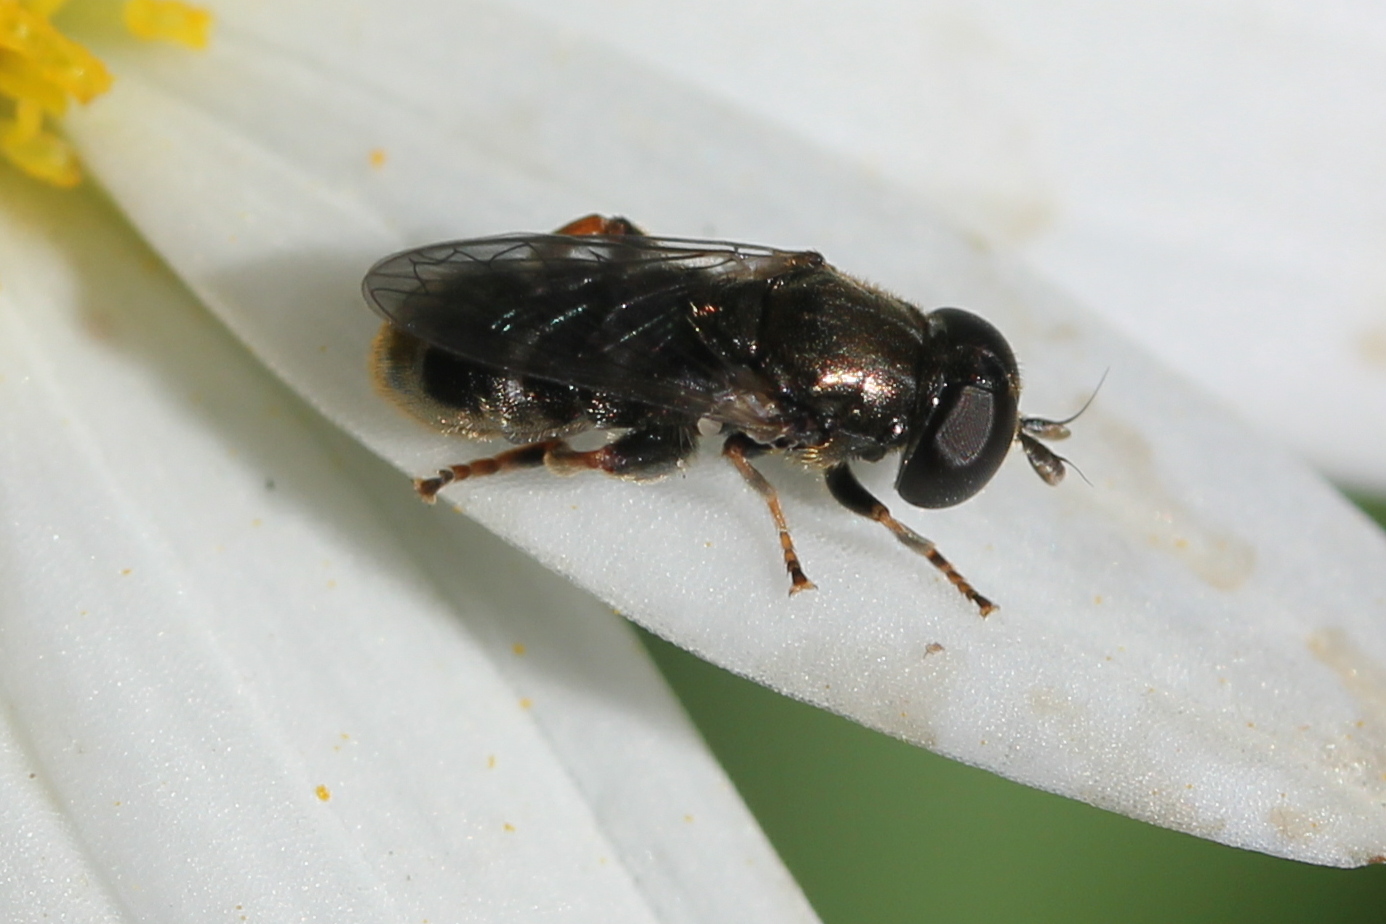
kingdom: Animalia
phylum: Arthropoda
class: Insecta
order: Diptera
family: Syrphidae
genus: Eumerus
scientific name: Eumerus
